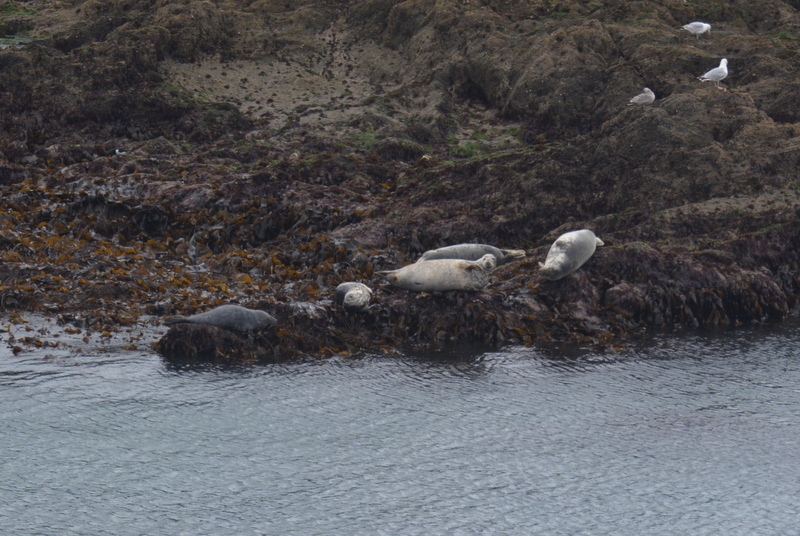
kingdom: Animalia
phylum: Chordata
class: Mammalia
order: Carnivora
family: Phocidae
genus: Halichoerus
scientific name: Halichoerus grypus
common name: Grey seal
